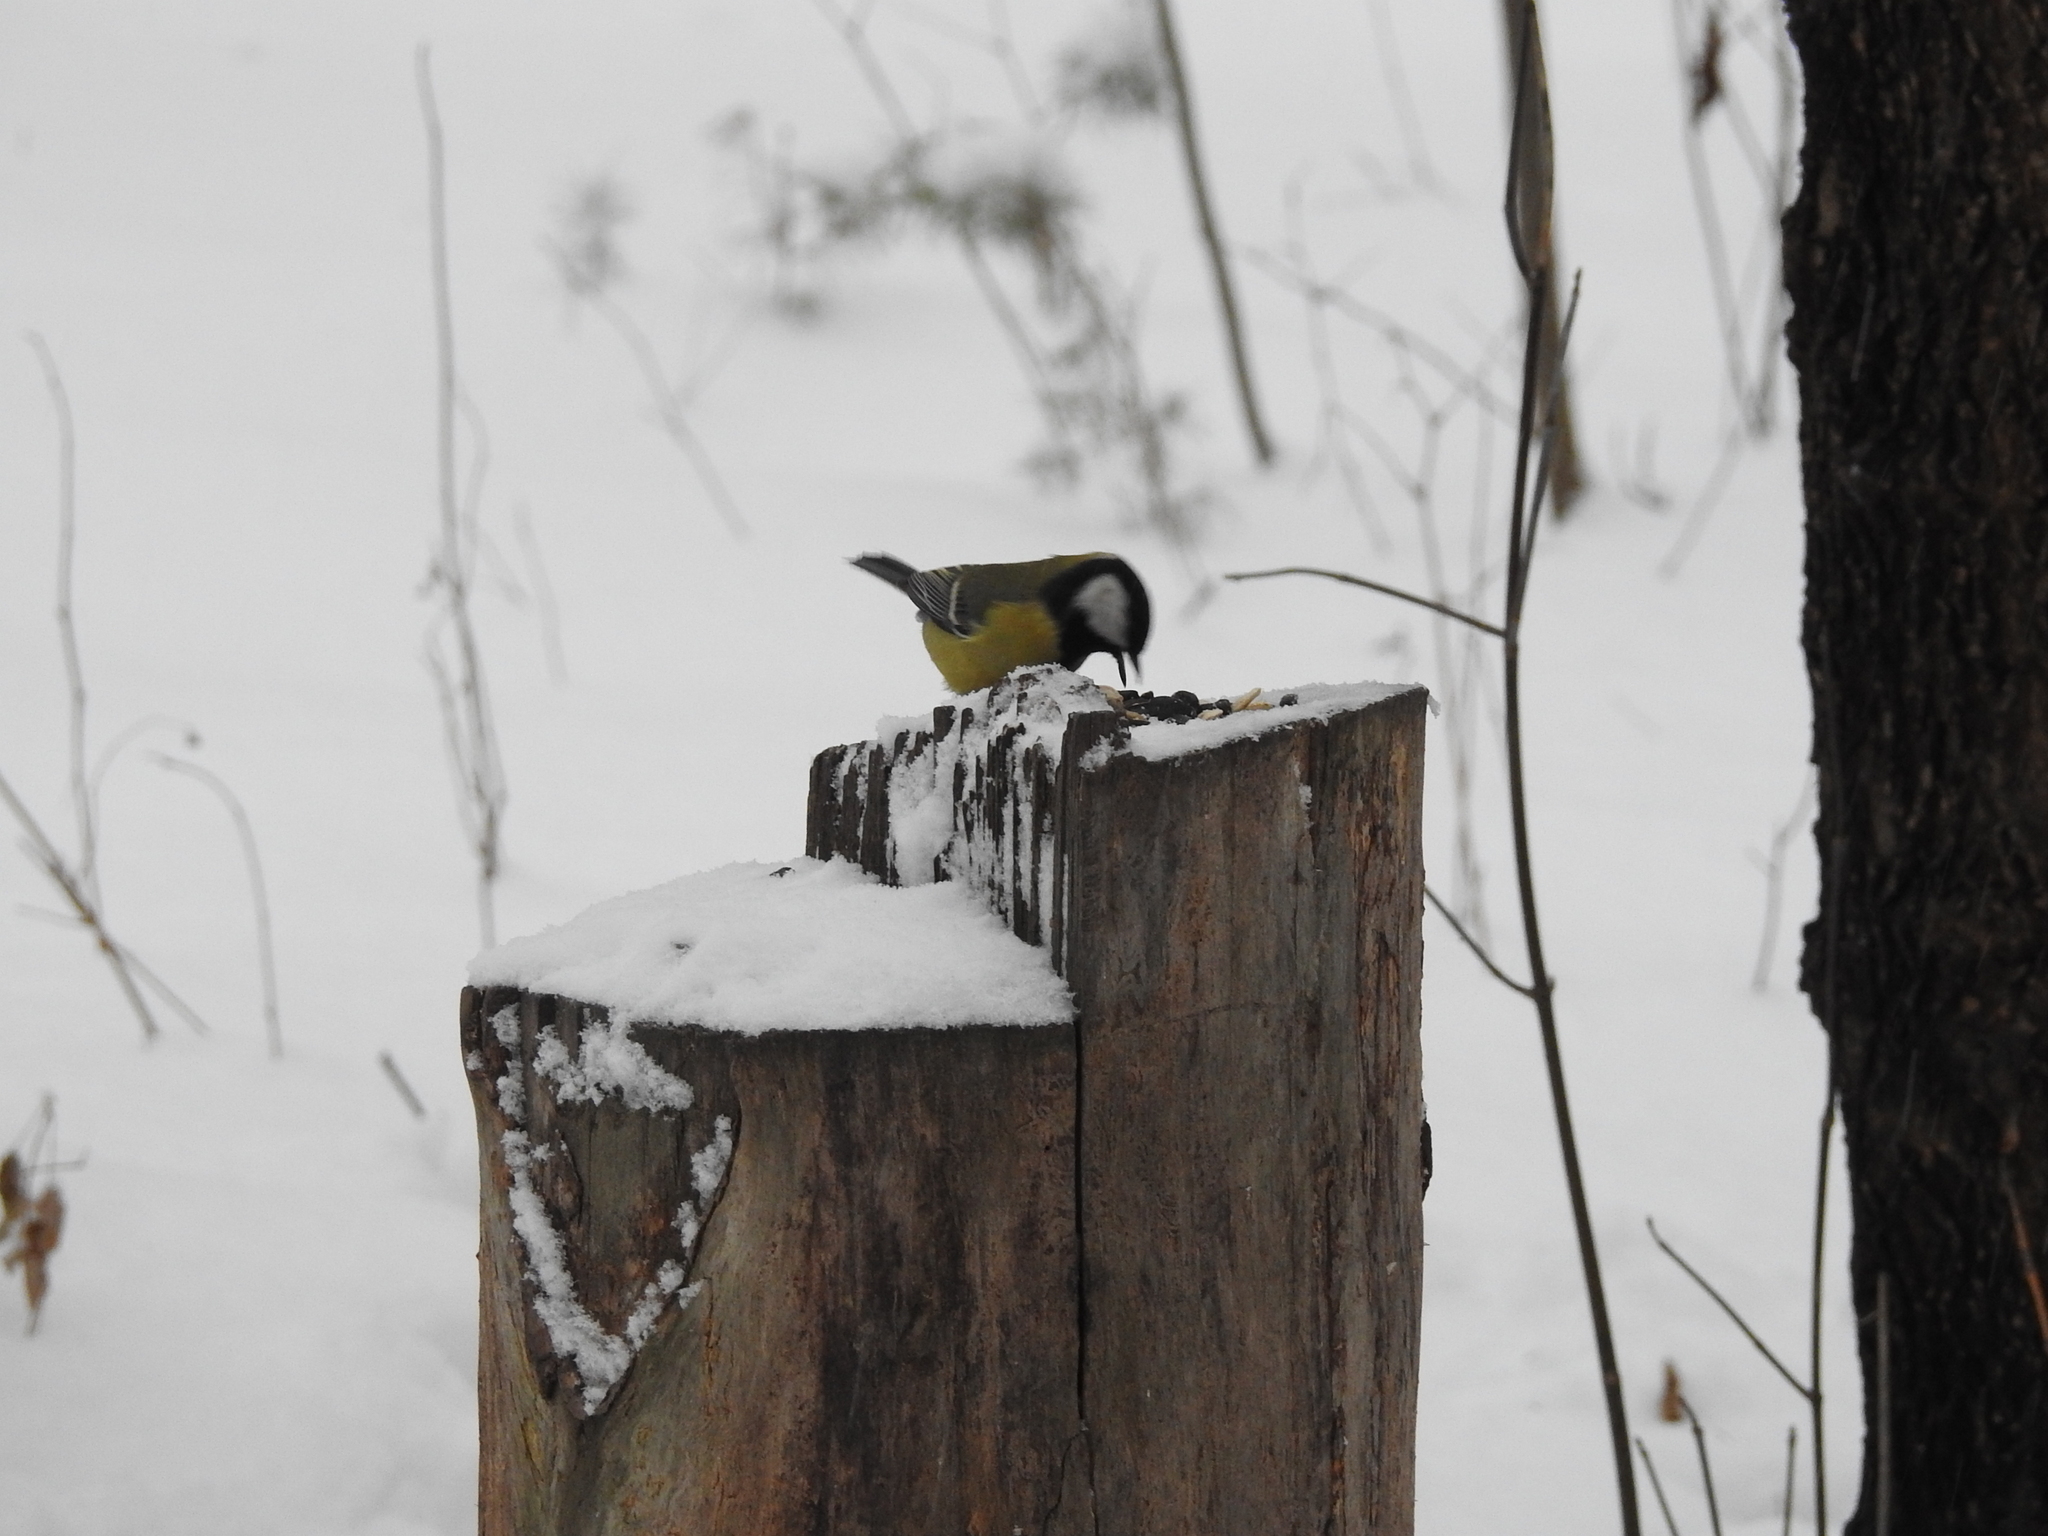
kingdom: Animalia
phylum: Chordata
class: Aves
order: Passeriformes
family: Paridae
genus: Parus
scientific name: Parus major
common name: Great tit
